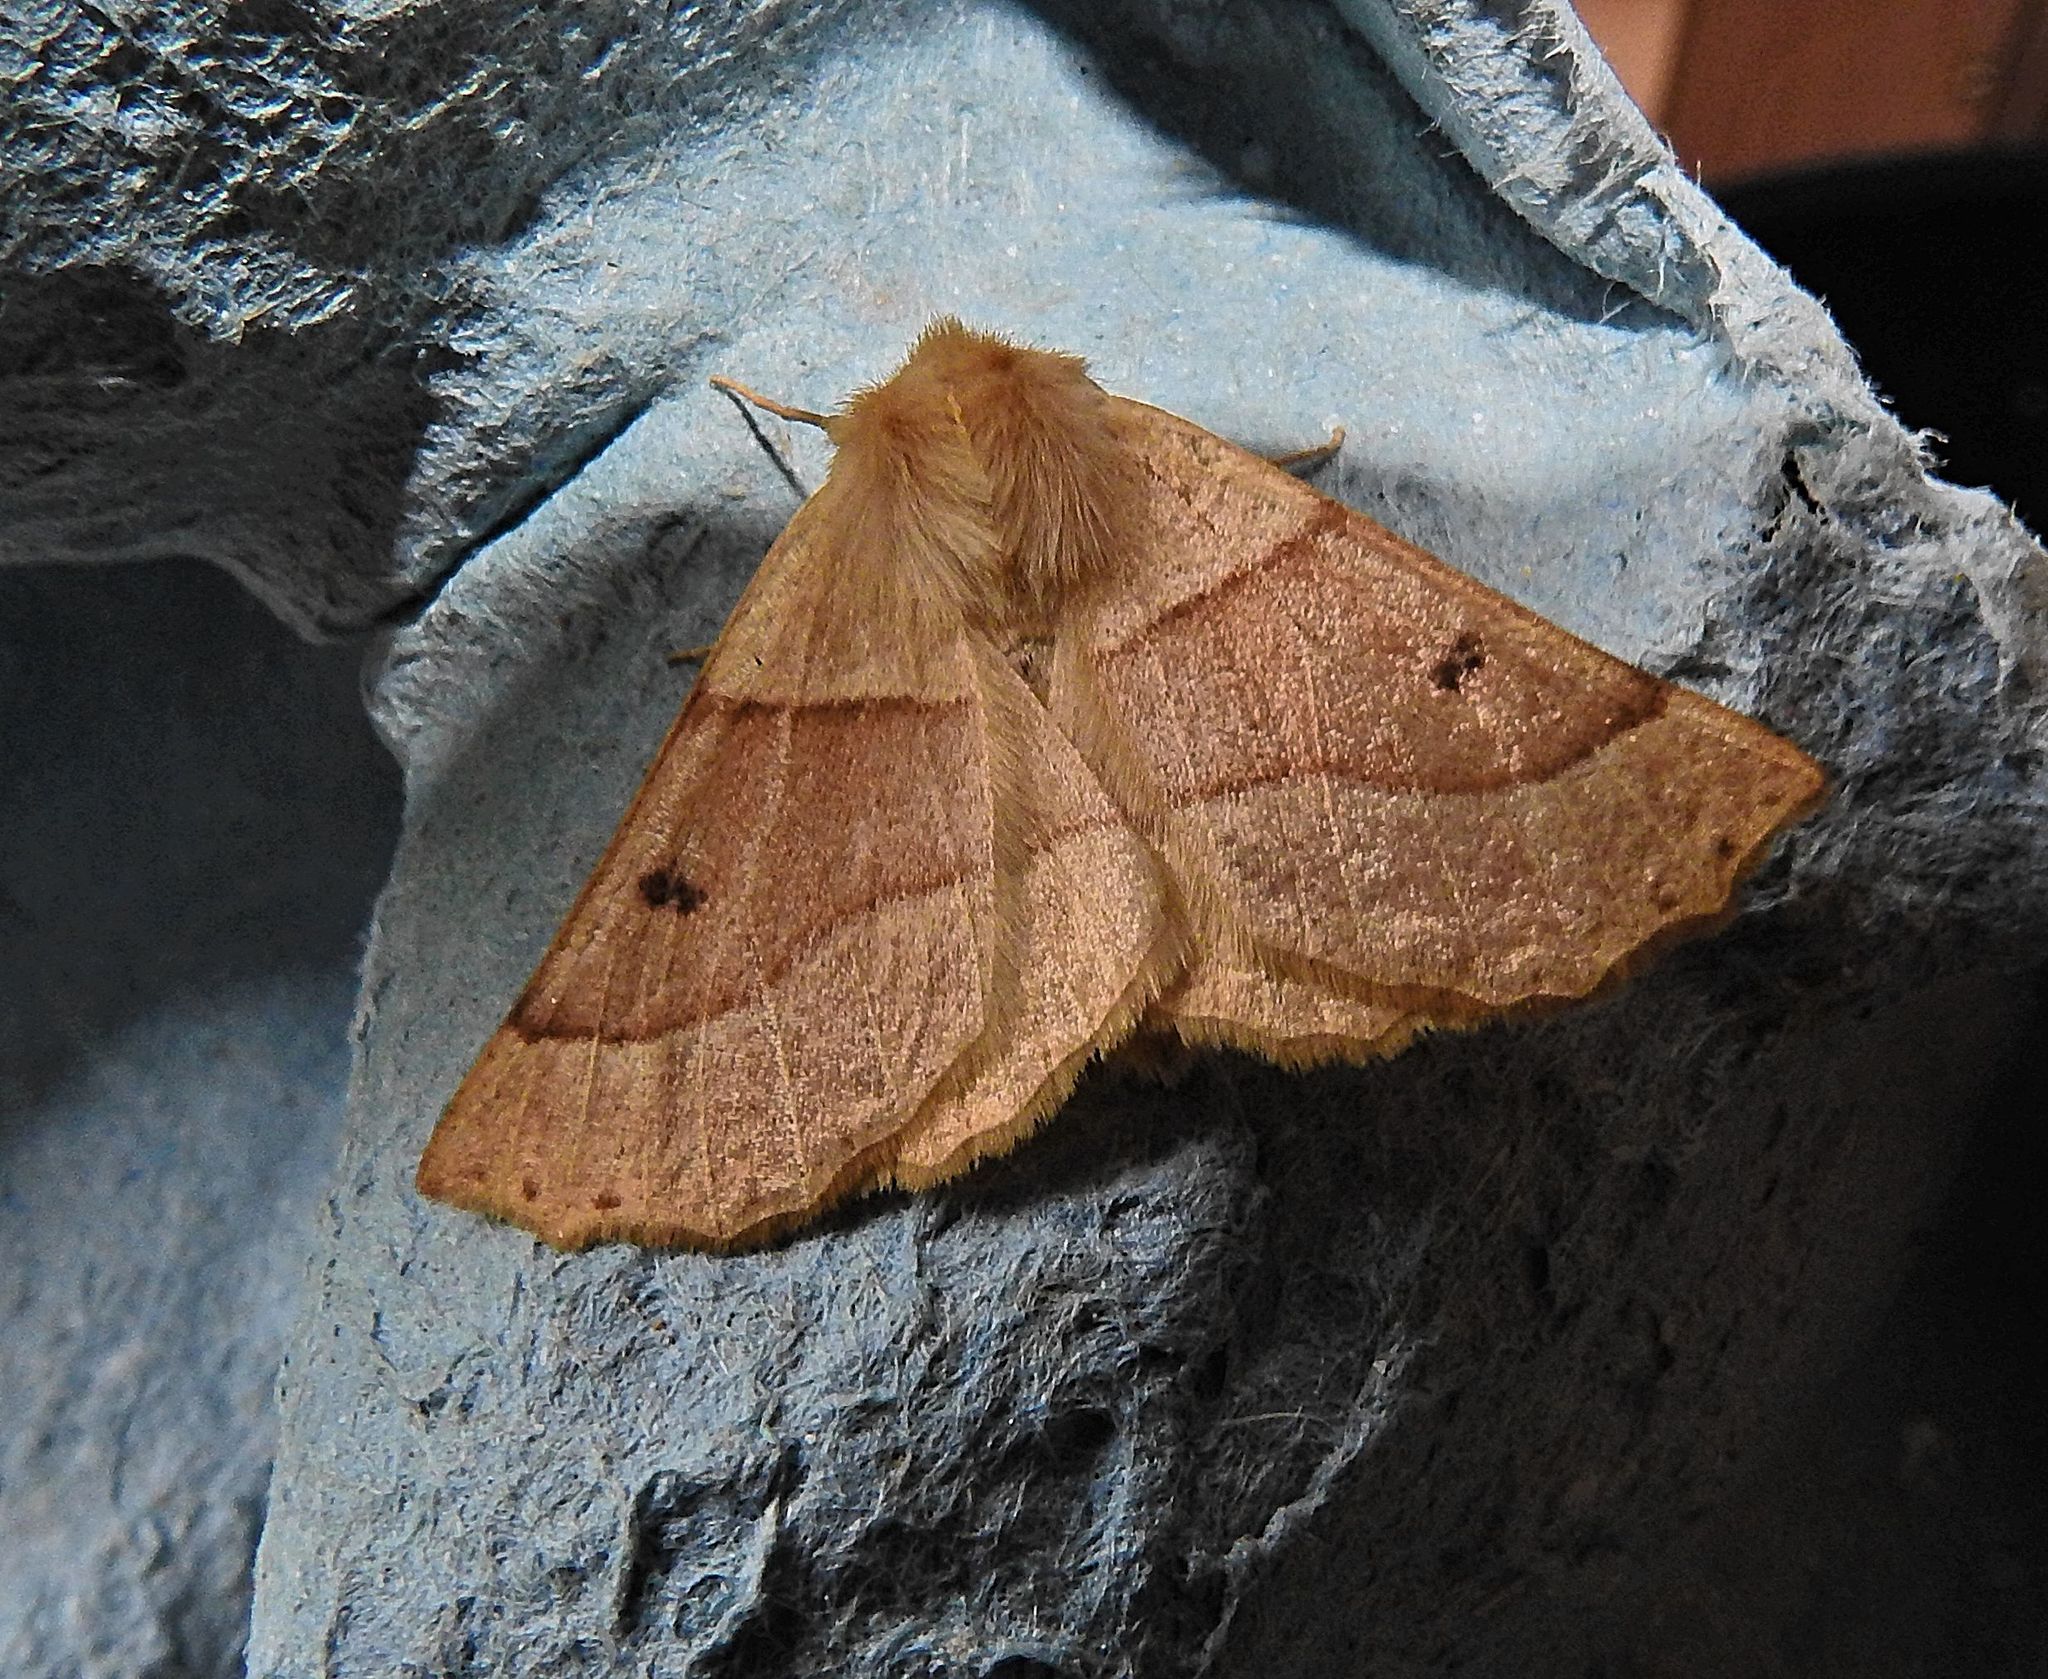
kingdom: Animalia
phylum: Arthropoda
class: Insecta
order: Lepidoptera
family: Geometridae
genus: Crocallis
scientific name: Crocallis elinguaria
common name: Scalloped oak
